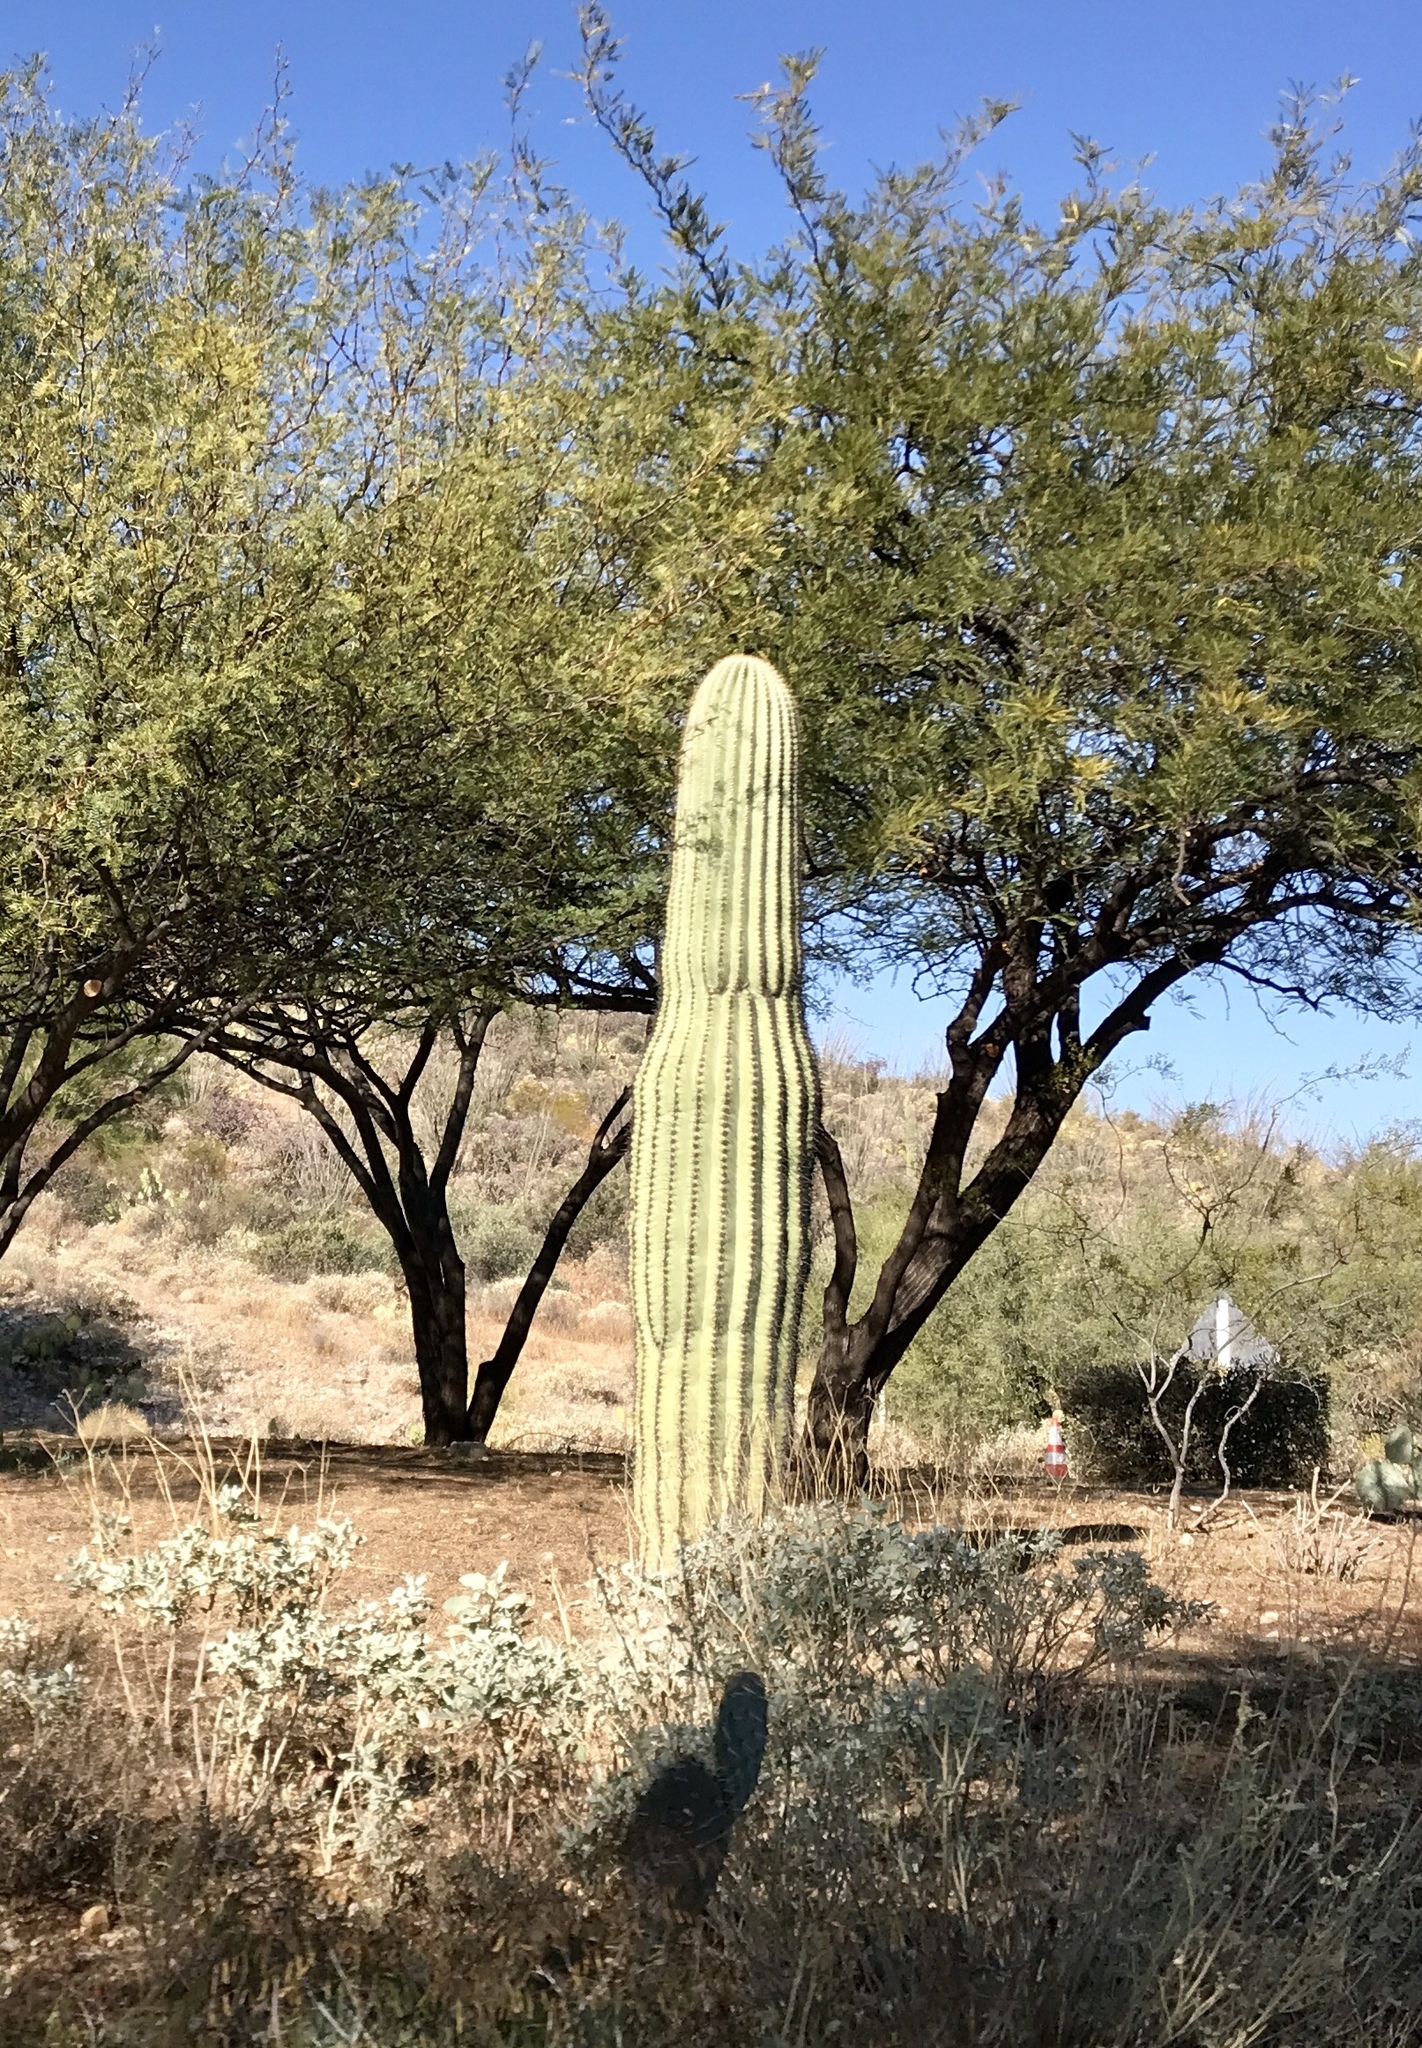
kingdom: Plantae
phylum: Tracheophyta
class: Magnoliopsida
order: Caryophyllales
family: Cactaceae
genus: Carnegiea
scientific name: Carnegiea gigantea
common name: Saguaro
